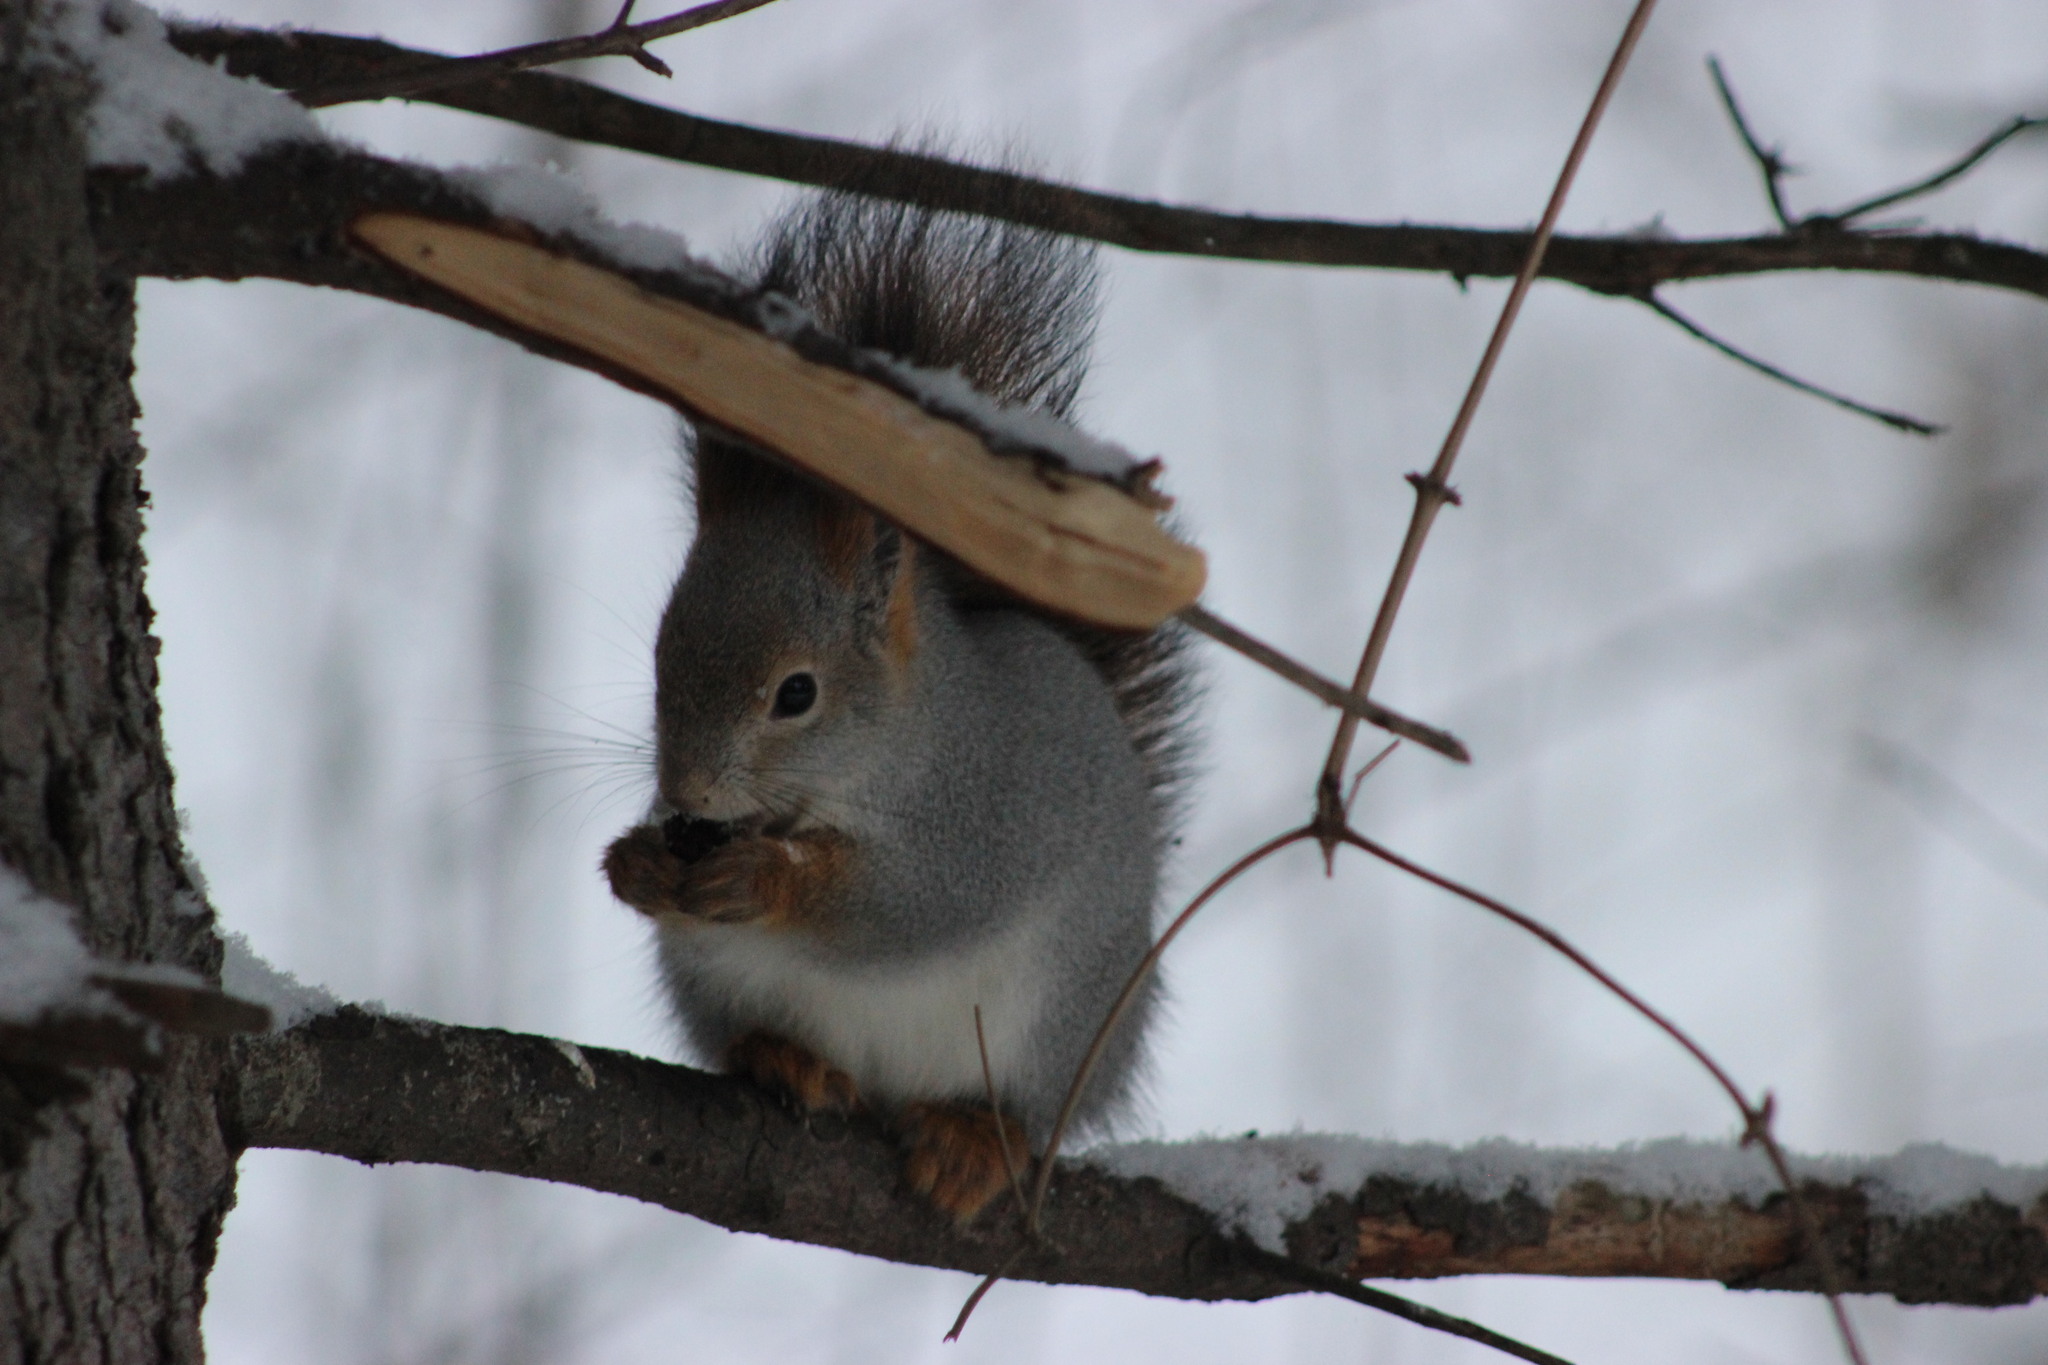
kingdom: Animalia
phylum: Chordata
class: Mammalia
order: Rodentia
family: Sciuridae
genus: Sciurus
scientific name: Sciurus vulgaris
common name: Eurasian red squirrel
